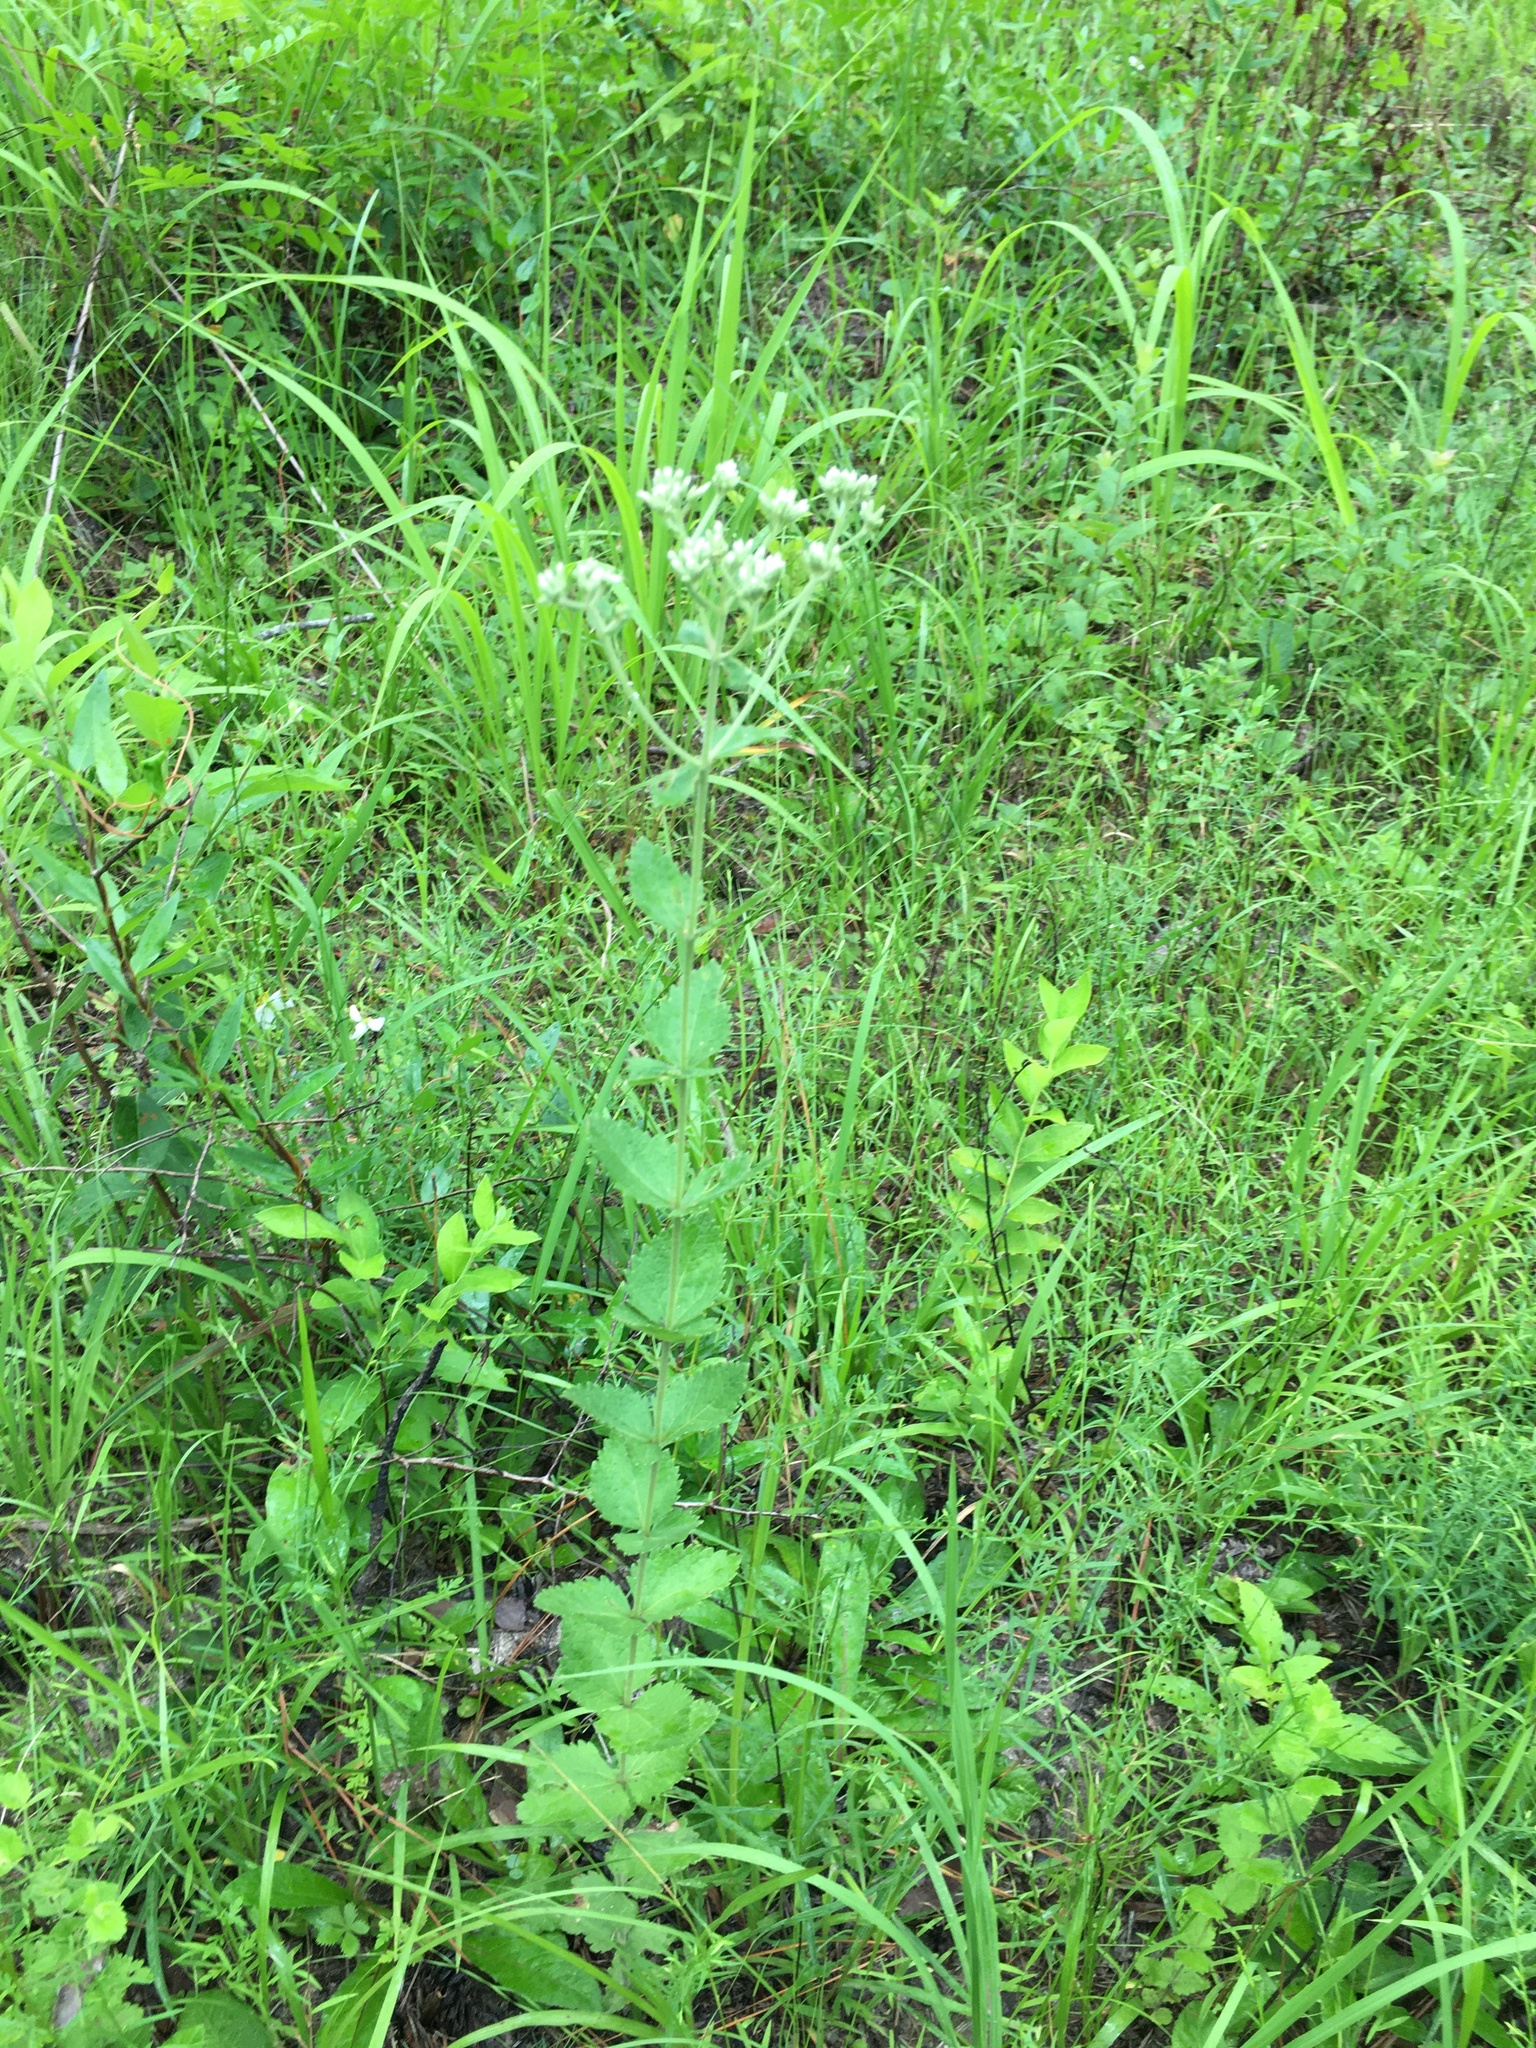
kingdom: Plantae
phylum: Tracheophyta
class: Magnoliopsida
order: Asterales
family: Asteraceae
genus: Eupatorium
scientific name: Eupatorium rotundifolium
